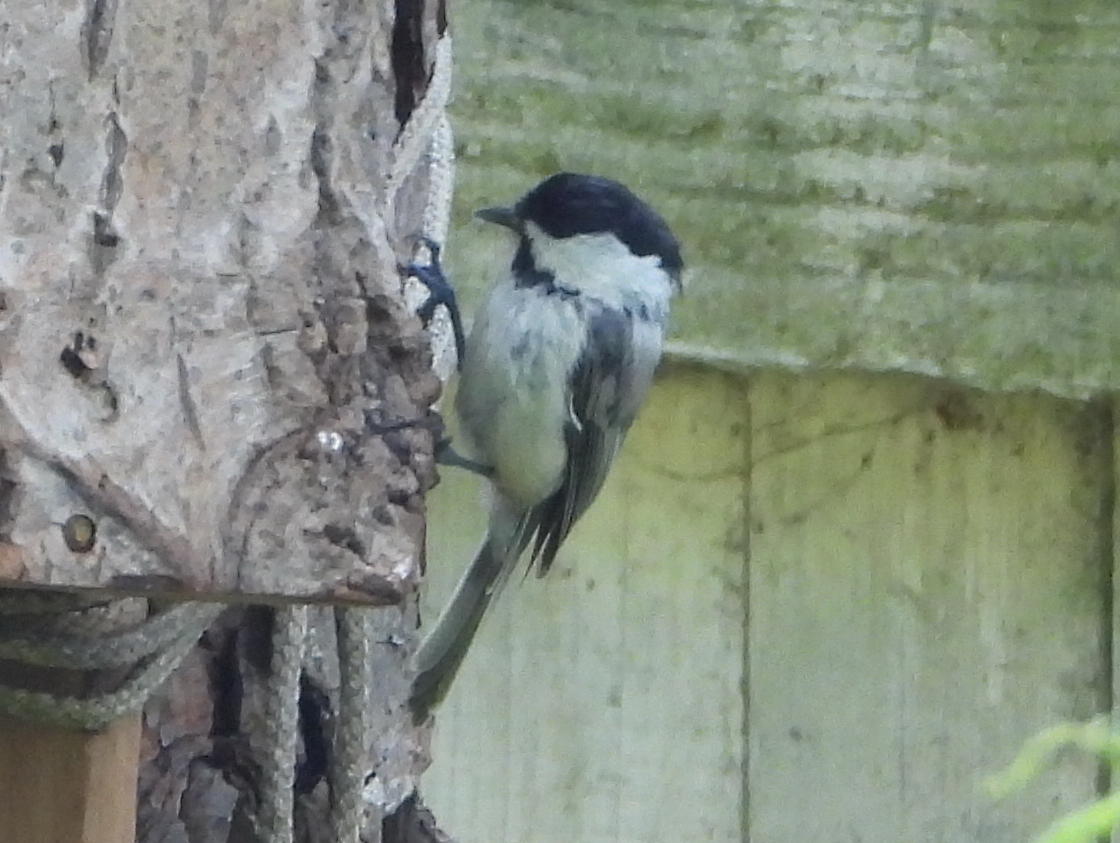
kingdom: Animalia
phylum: Chordata
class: Aves
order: Passeriformes
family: Paridae
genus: Poecile
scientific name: Poecile montanus
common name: Willow tit
